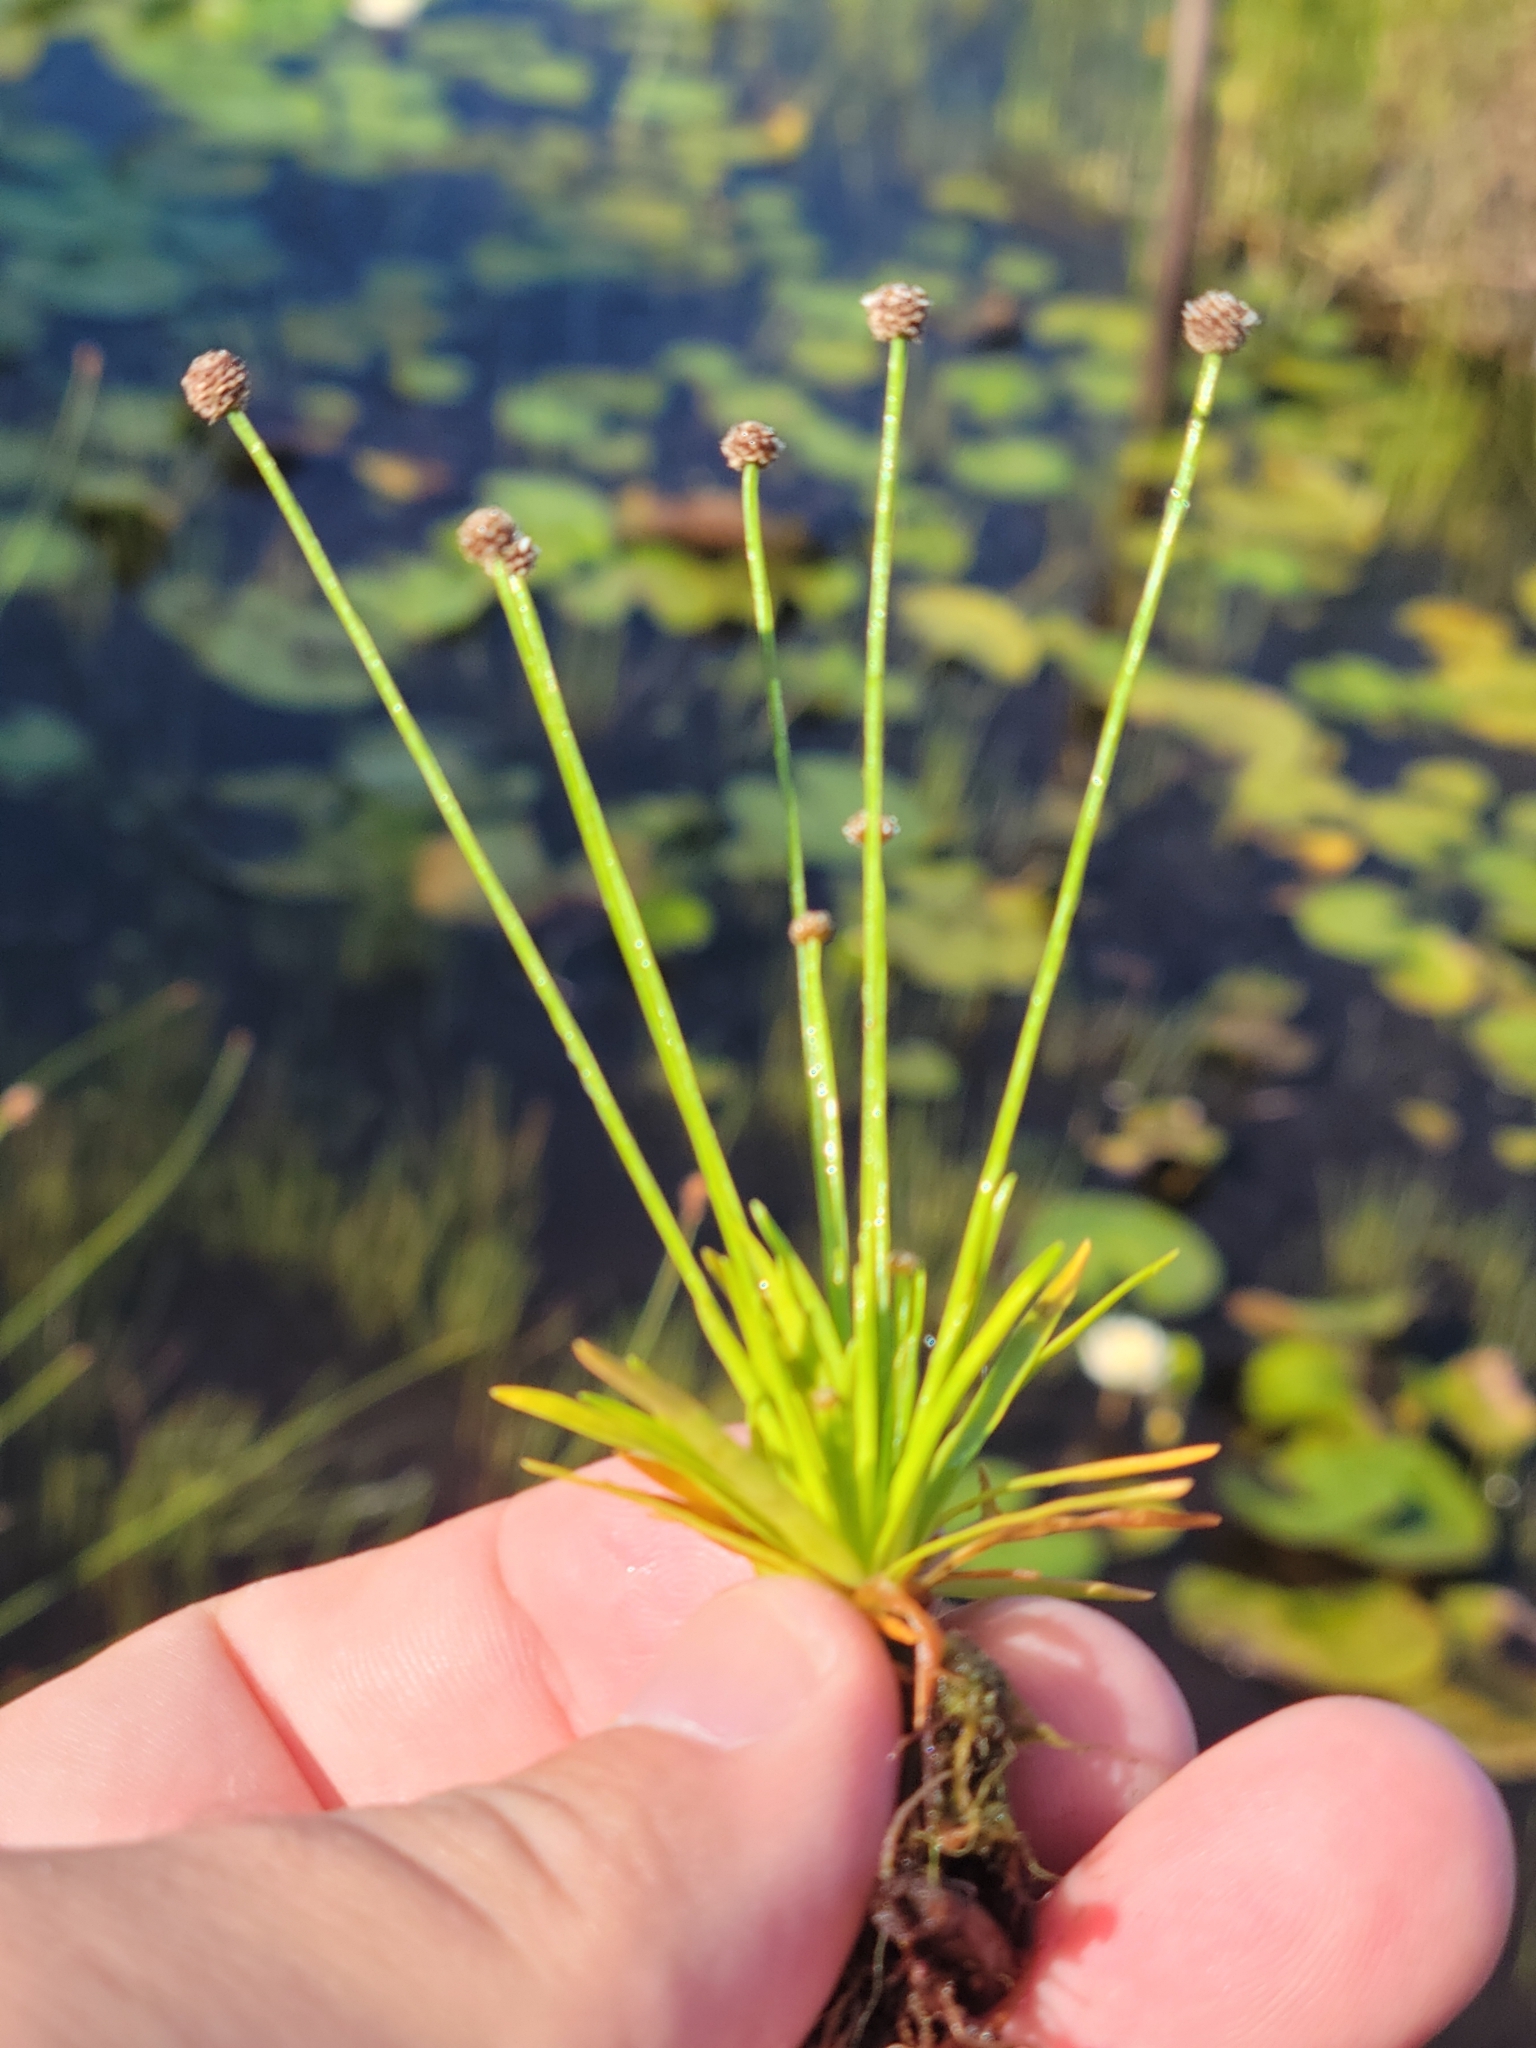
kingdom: Plantae
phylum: Tracheophyta
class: Liliopsida
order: Poales
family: Eriocaulaceae
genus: Paepalanthus
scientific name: Paepalanthus engleri
